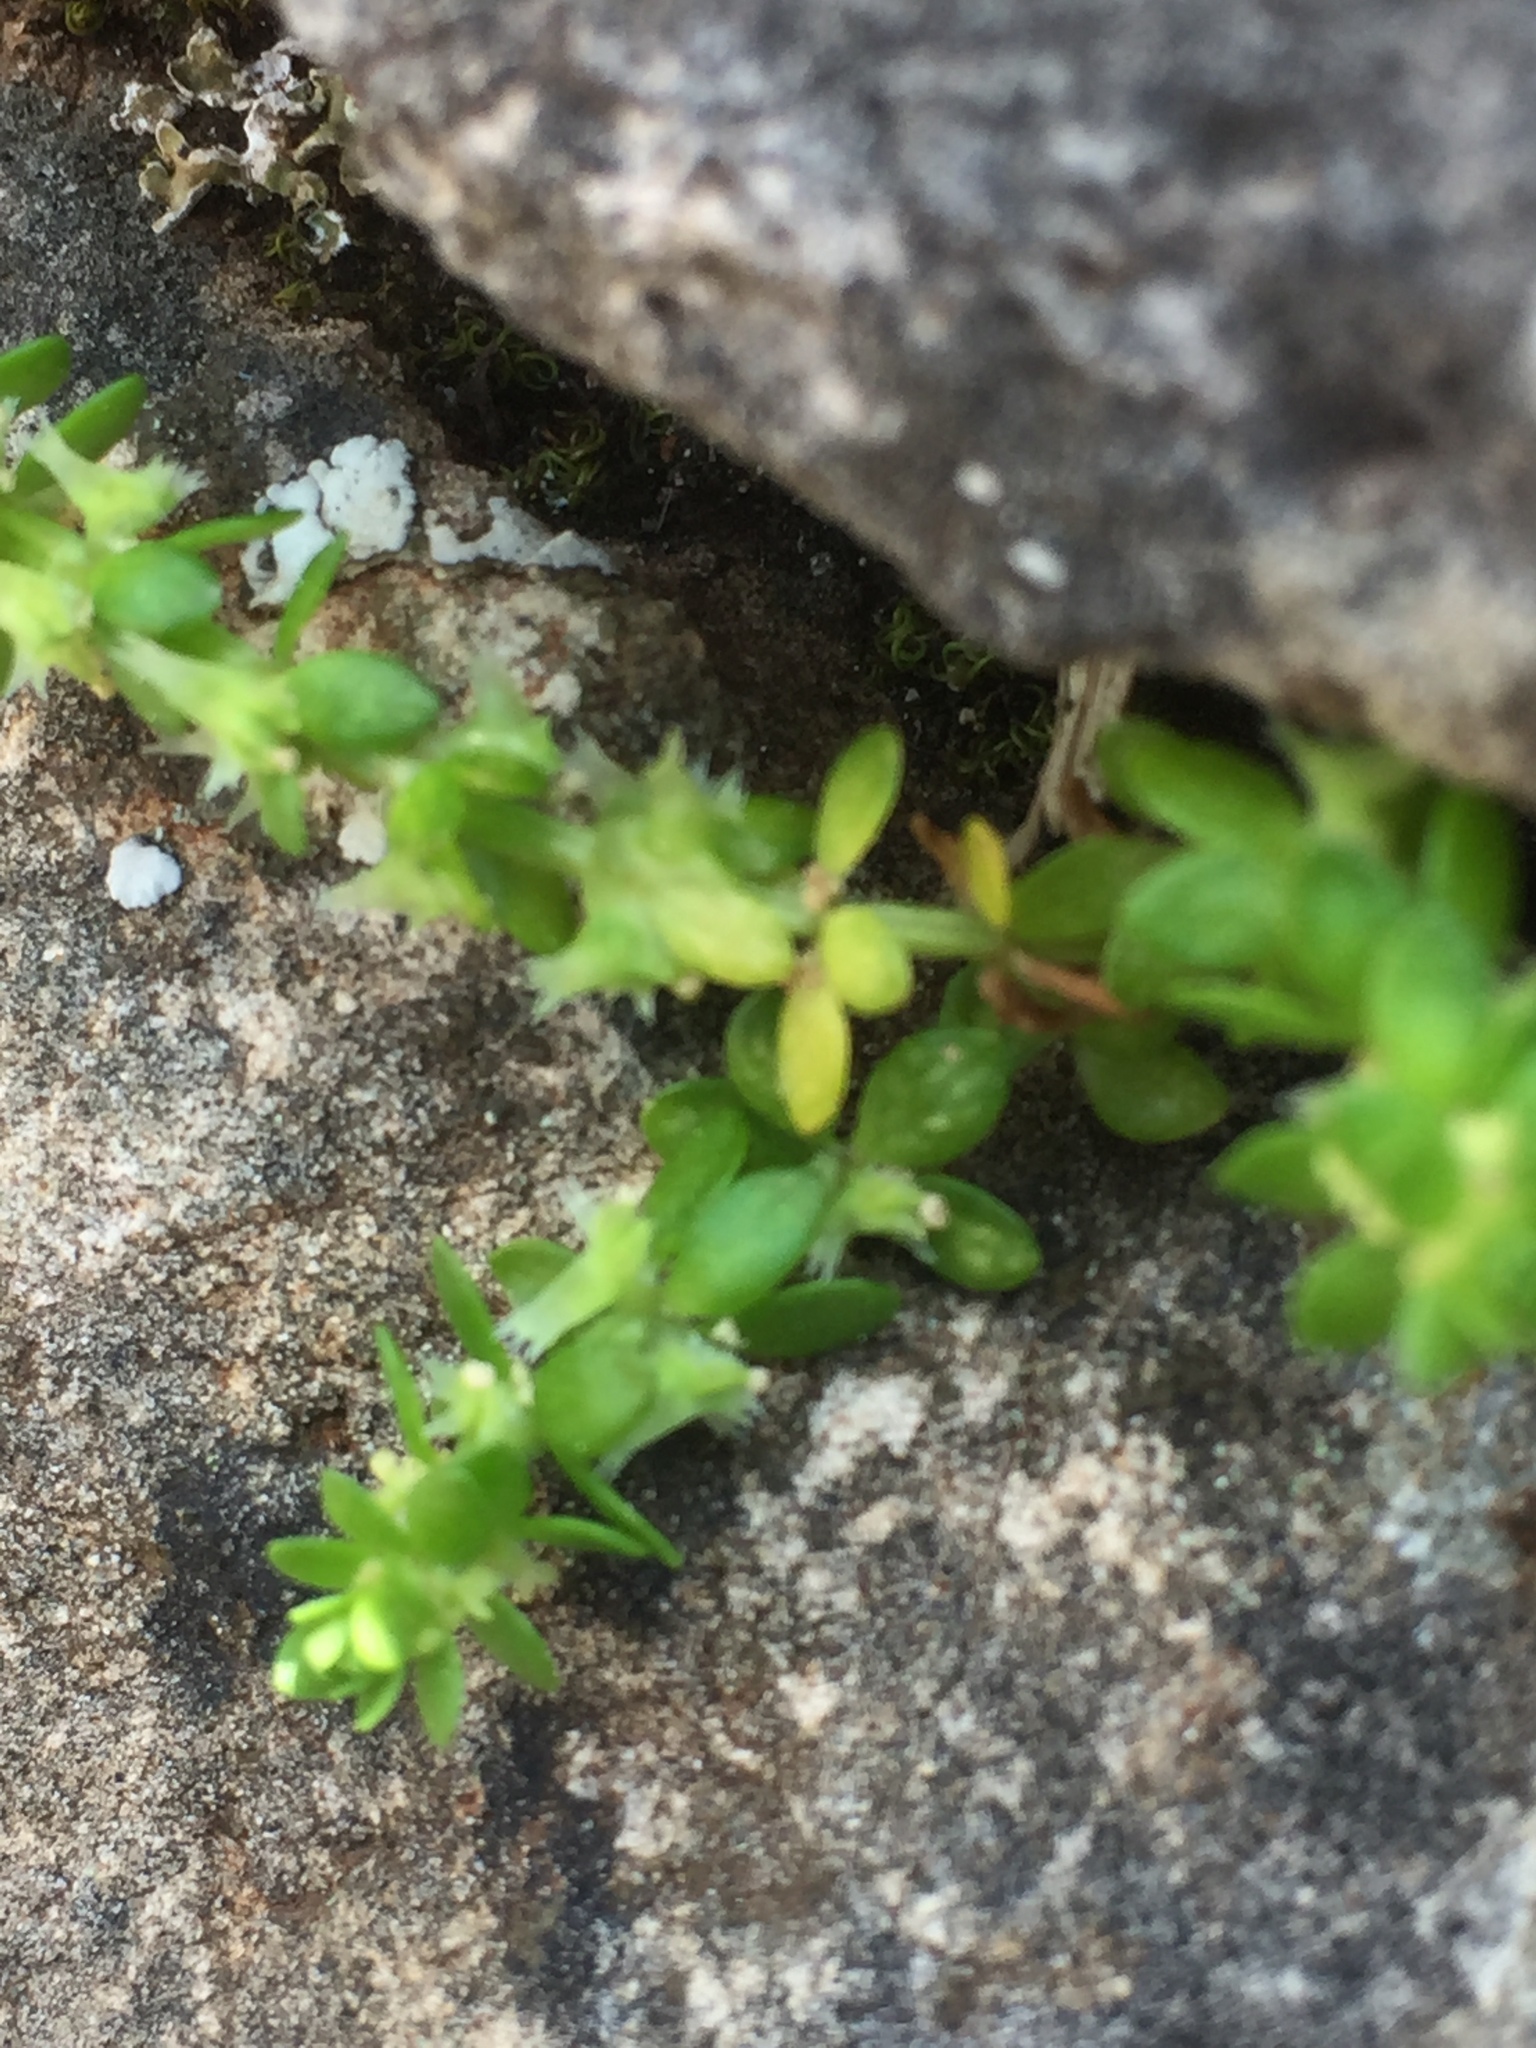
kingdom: Plantae
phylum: Tracheophyta
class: Magnoliopsida
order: Gentianales
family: Rubiaceae
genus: Valantia
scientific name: Valantia muralis
